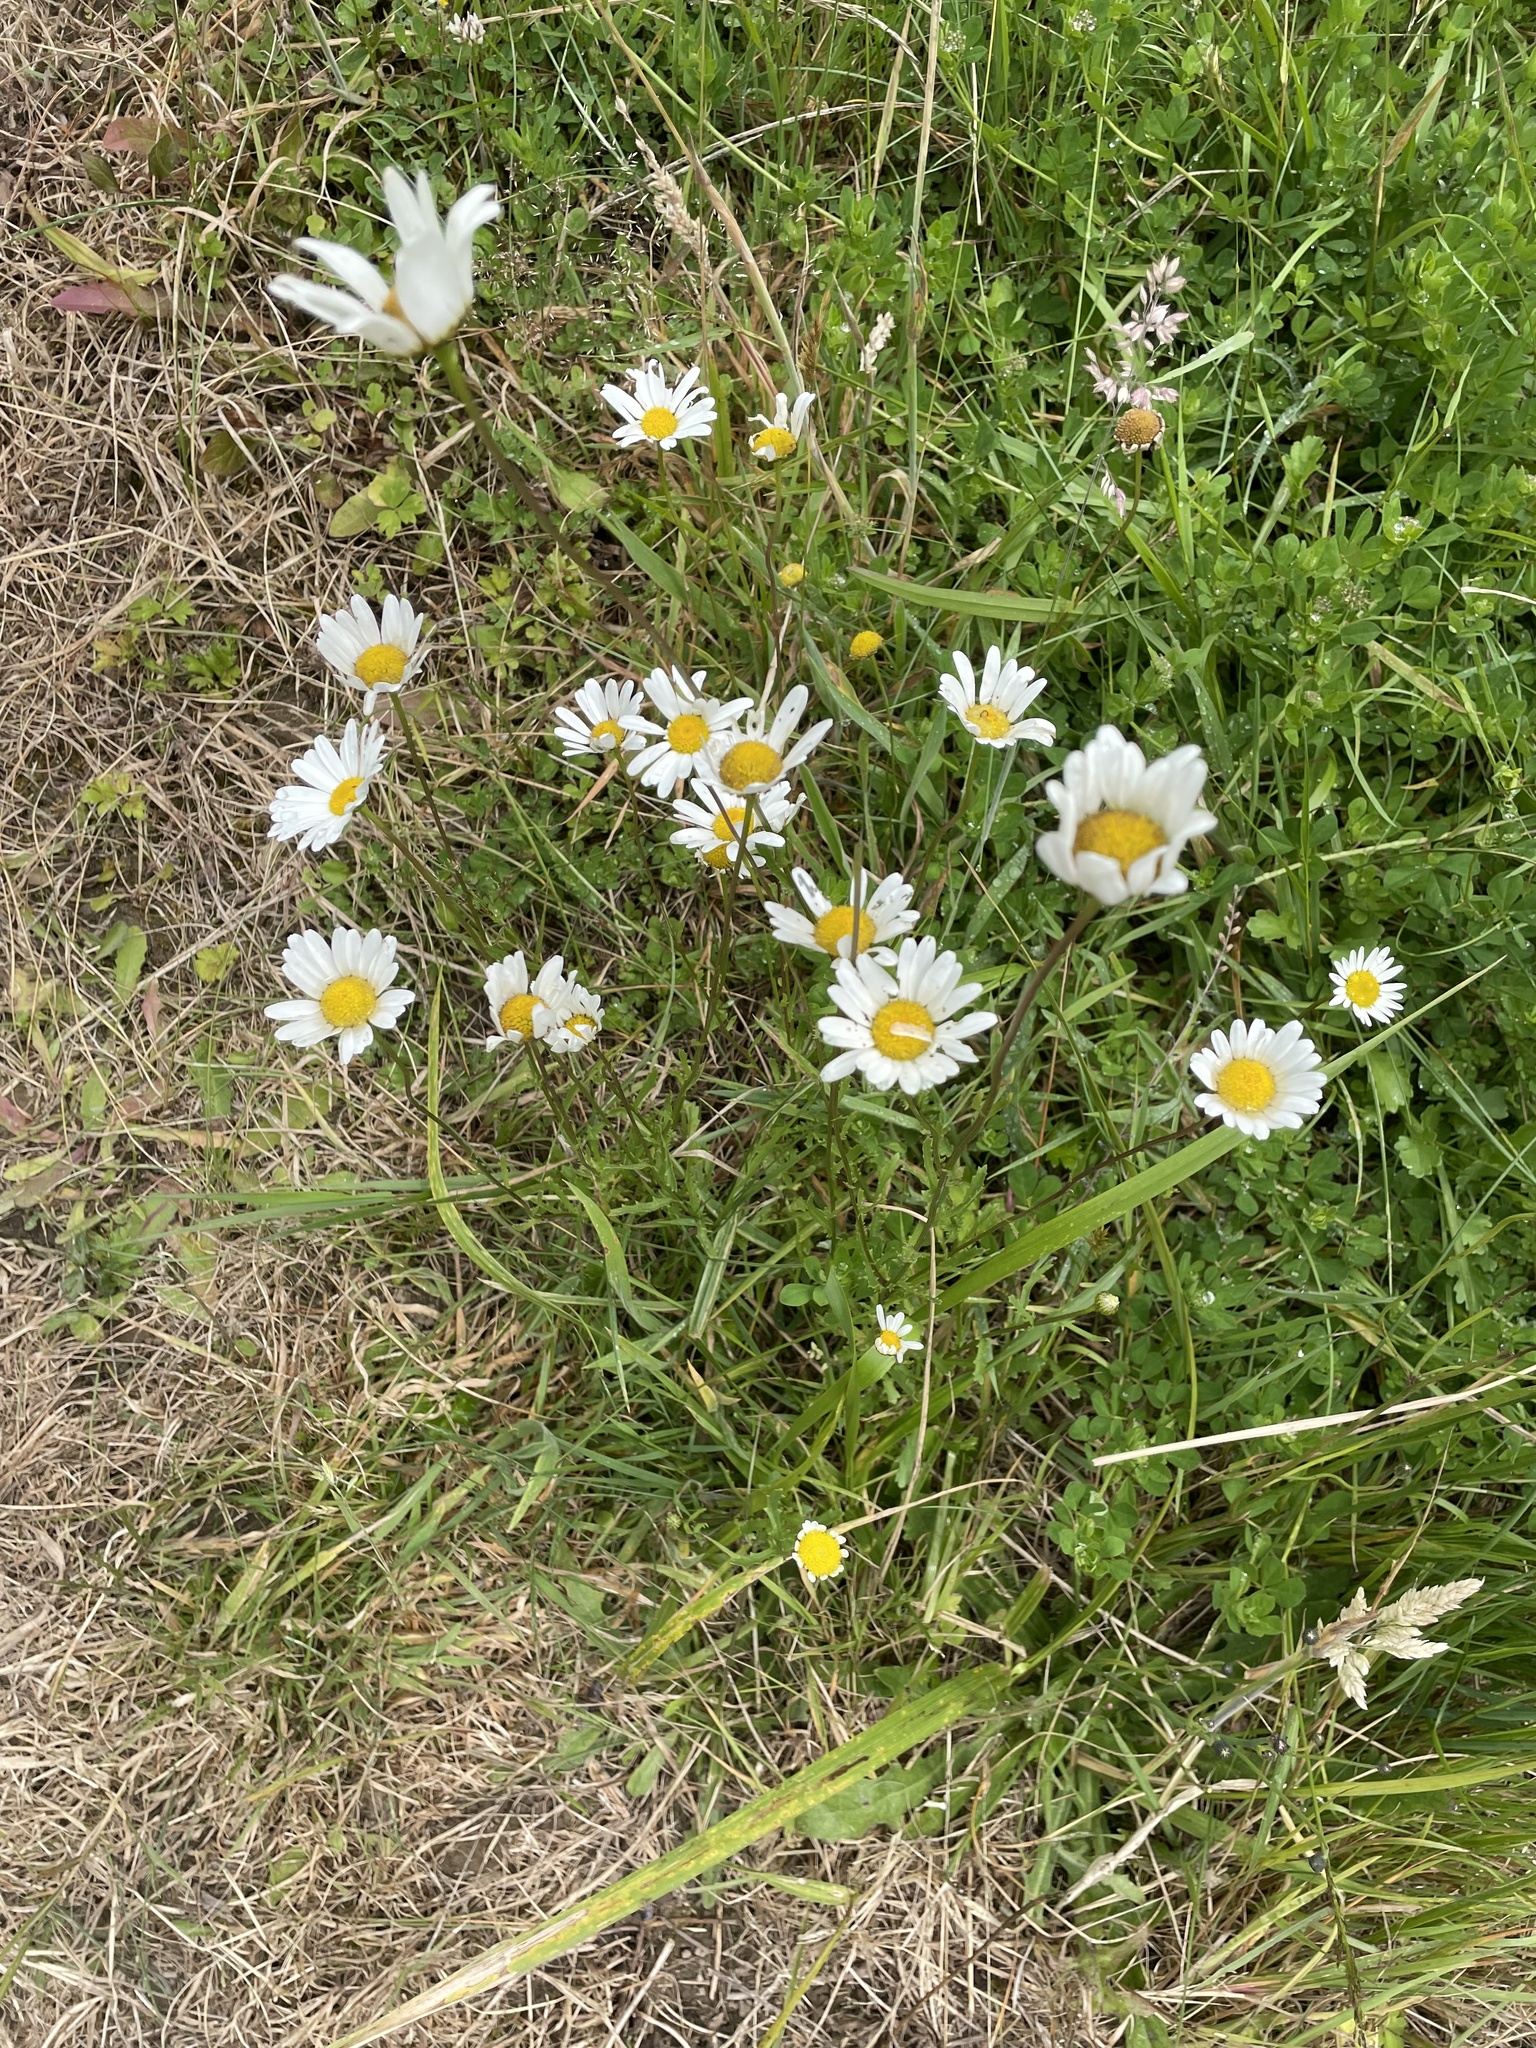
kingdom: Plantae
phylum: Tracheophyta
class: Magnoliopsida
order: Asterales
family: Asteraceae
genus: Leucanthemum
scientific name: Leucanthemum vulgare
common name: Oxeye daisy
